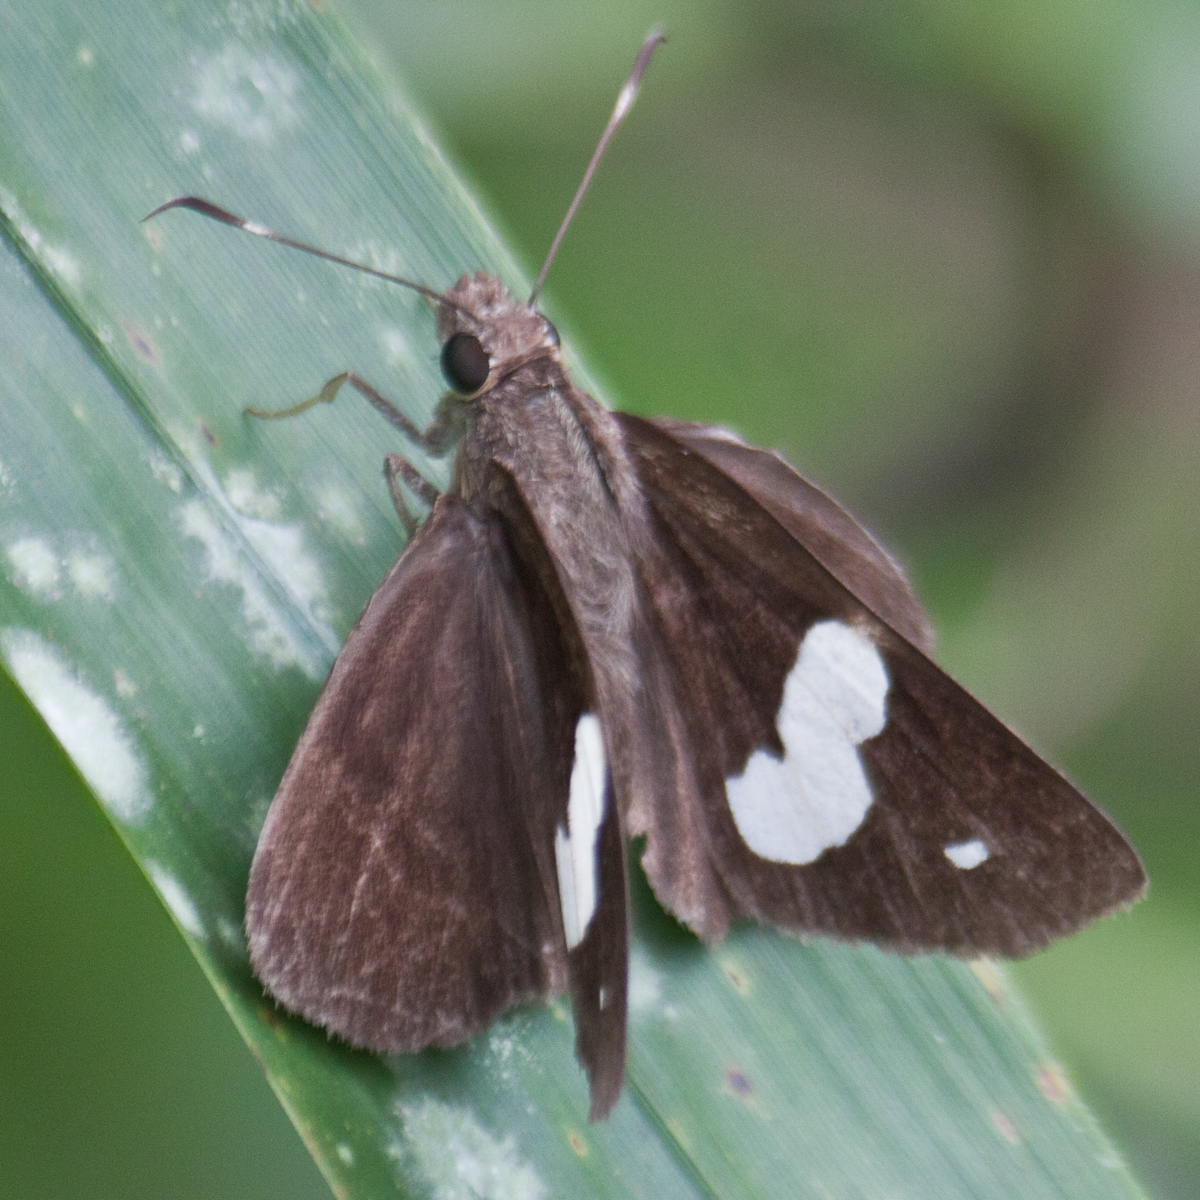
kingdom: Animalia
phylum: Arthropoda
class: Insecta
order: Lepidoptera
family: Hesperiidae
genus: Notocrypta
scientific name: Notocrypta paralysos
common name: Common banded demon
